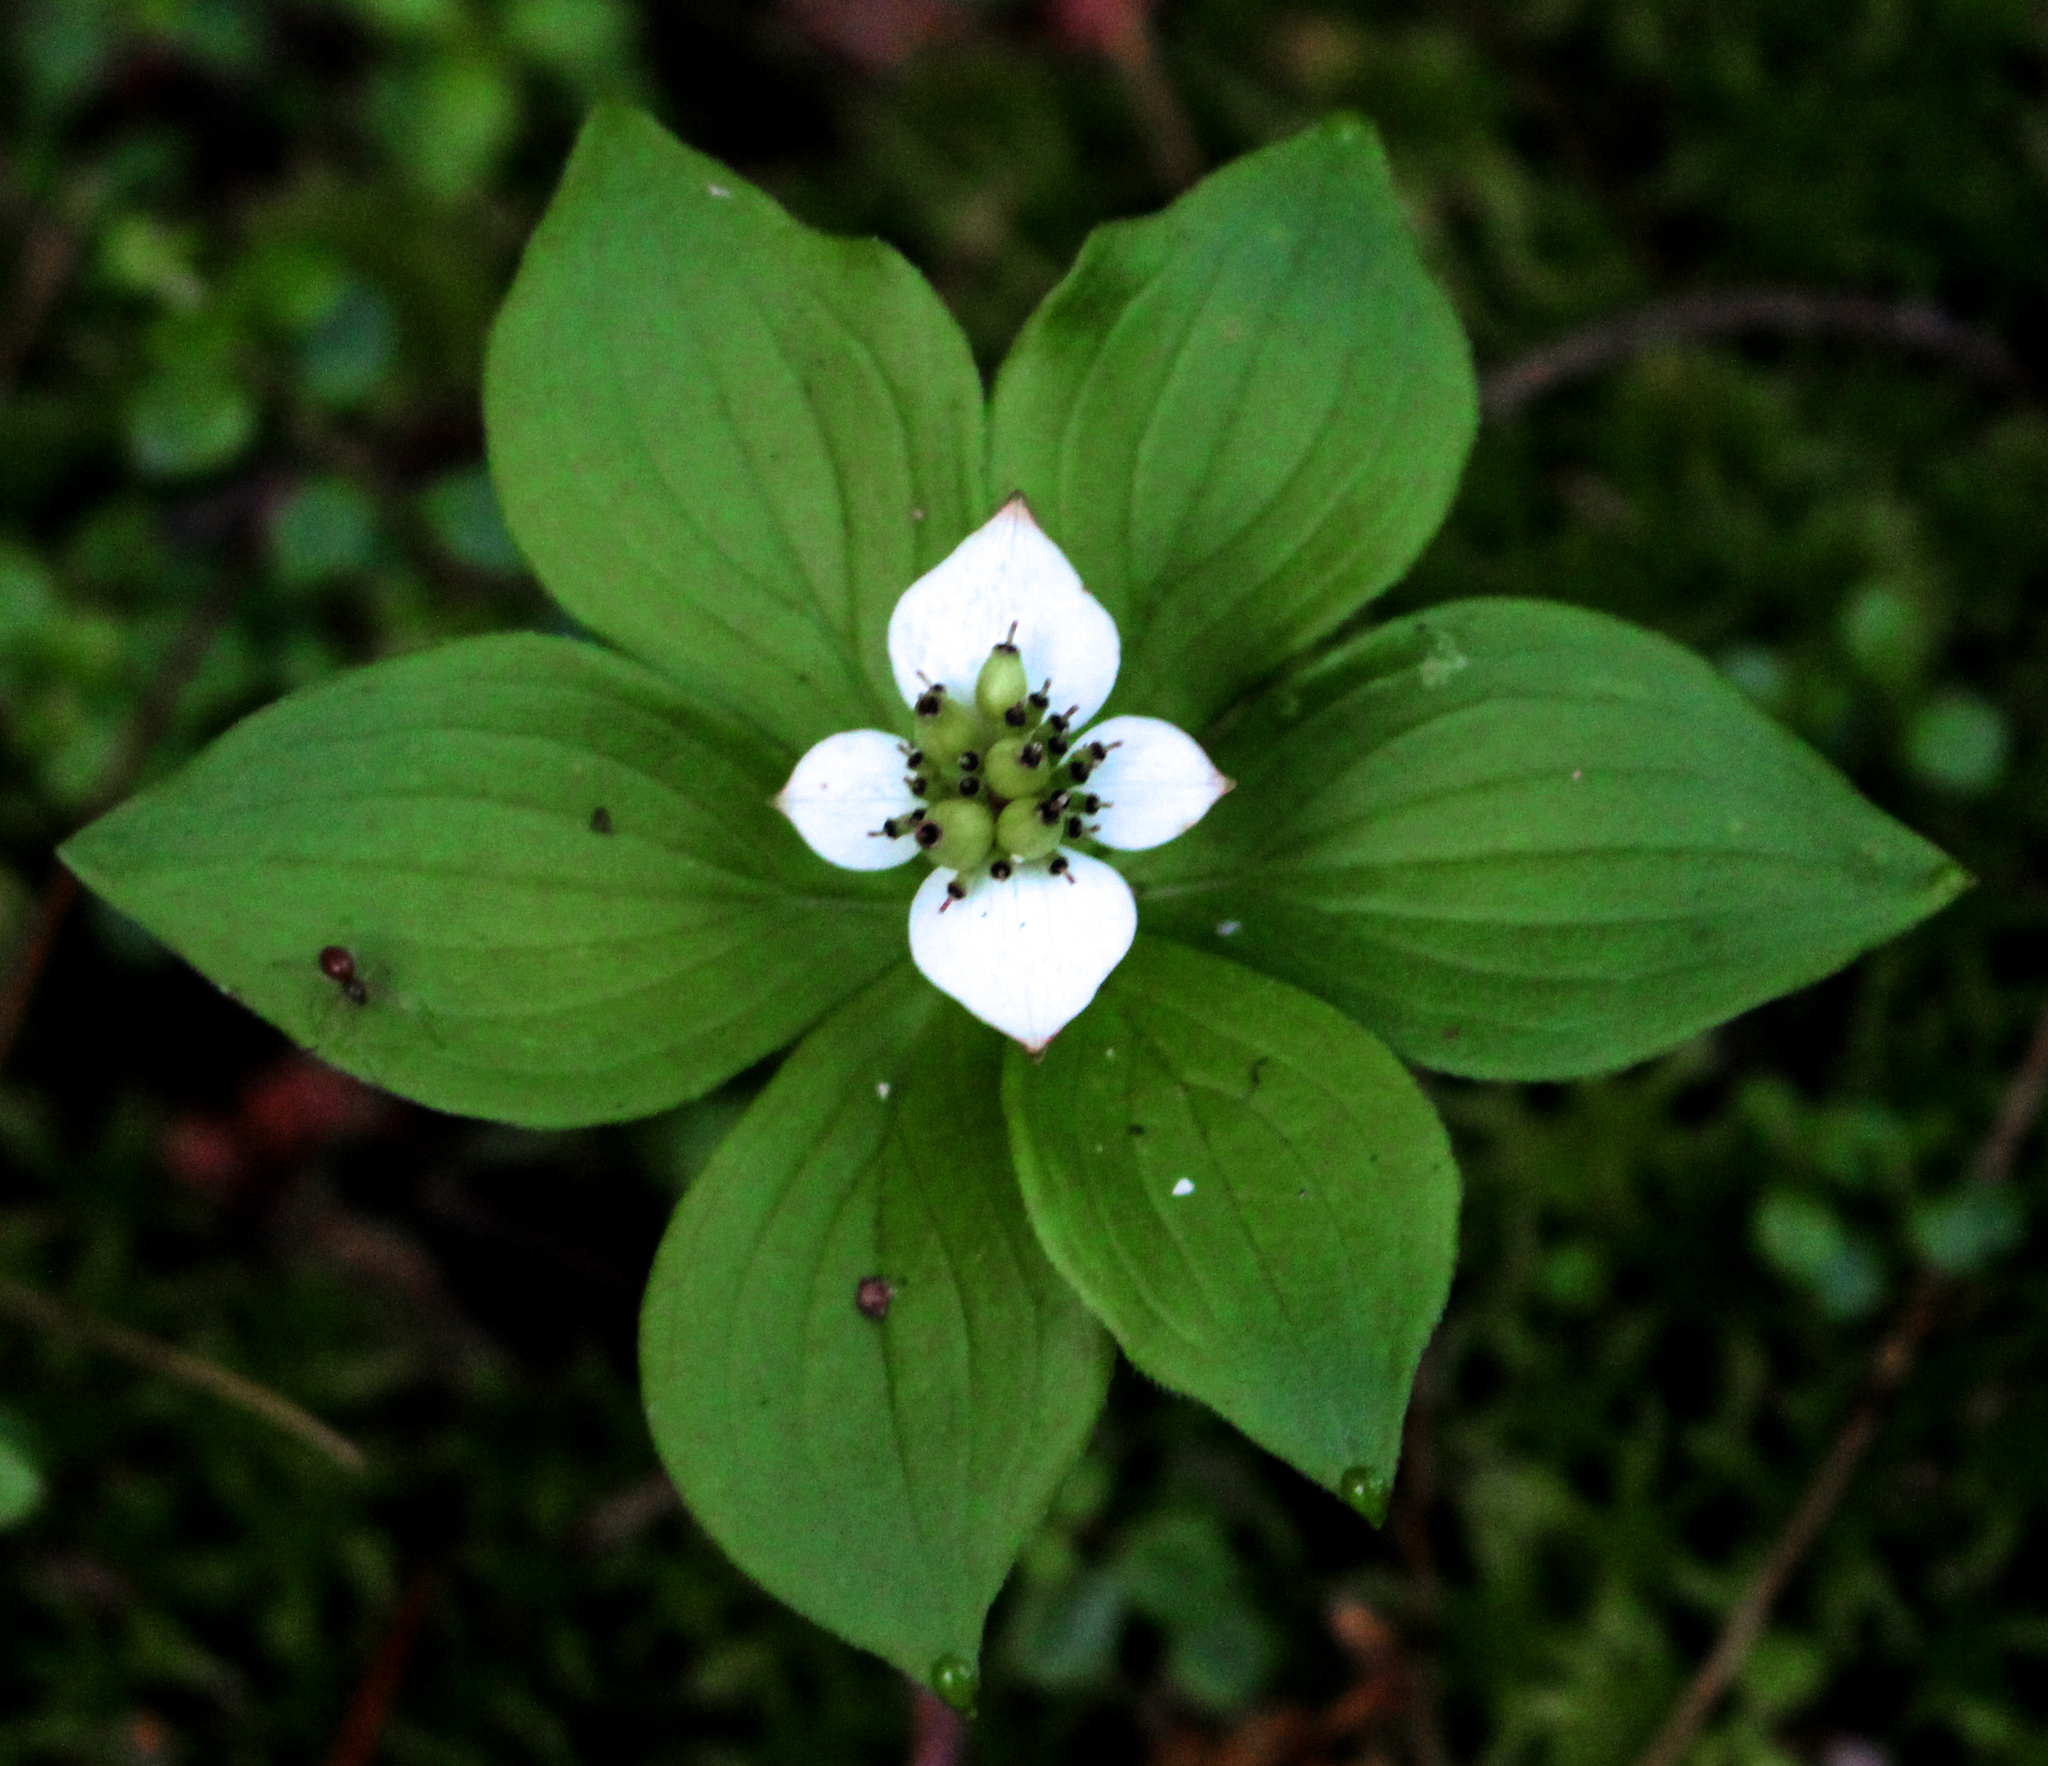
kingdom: Plantae
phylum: Tracheophyta
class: Magnoliopsida
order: Cornales
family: Cornaceae
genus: Cornus
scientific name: Cornus canadensis
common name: Creeping dogwood
